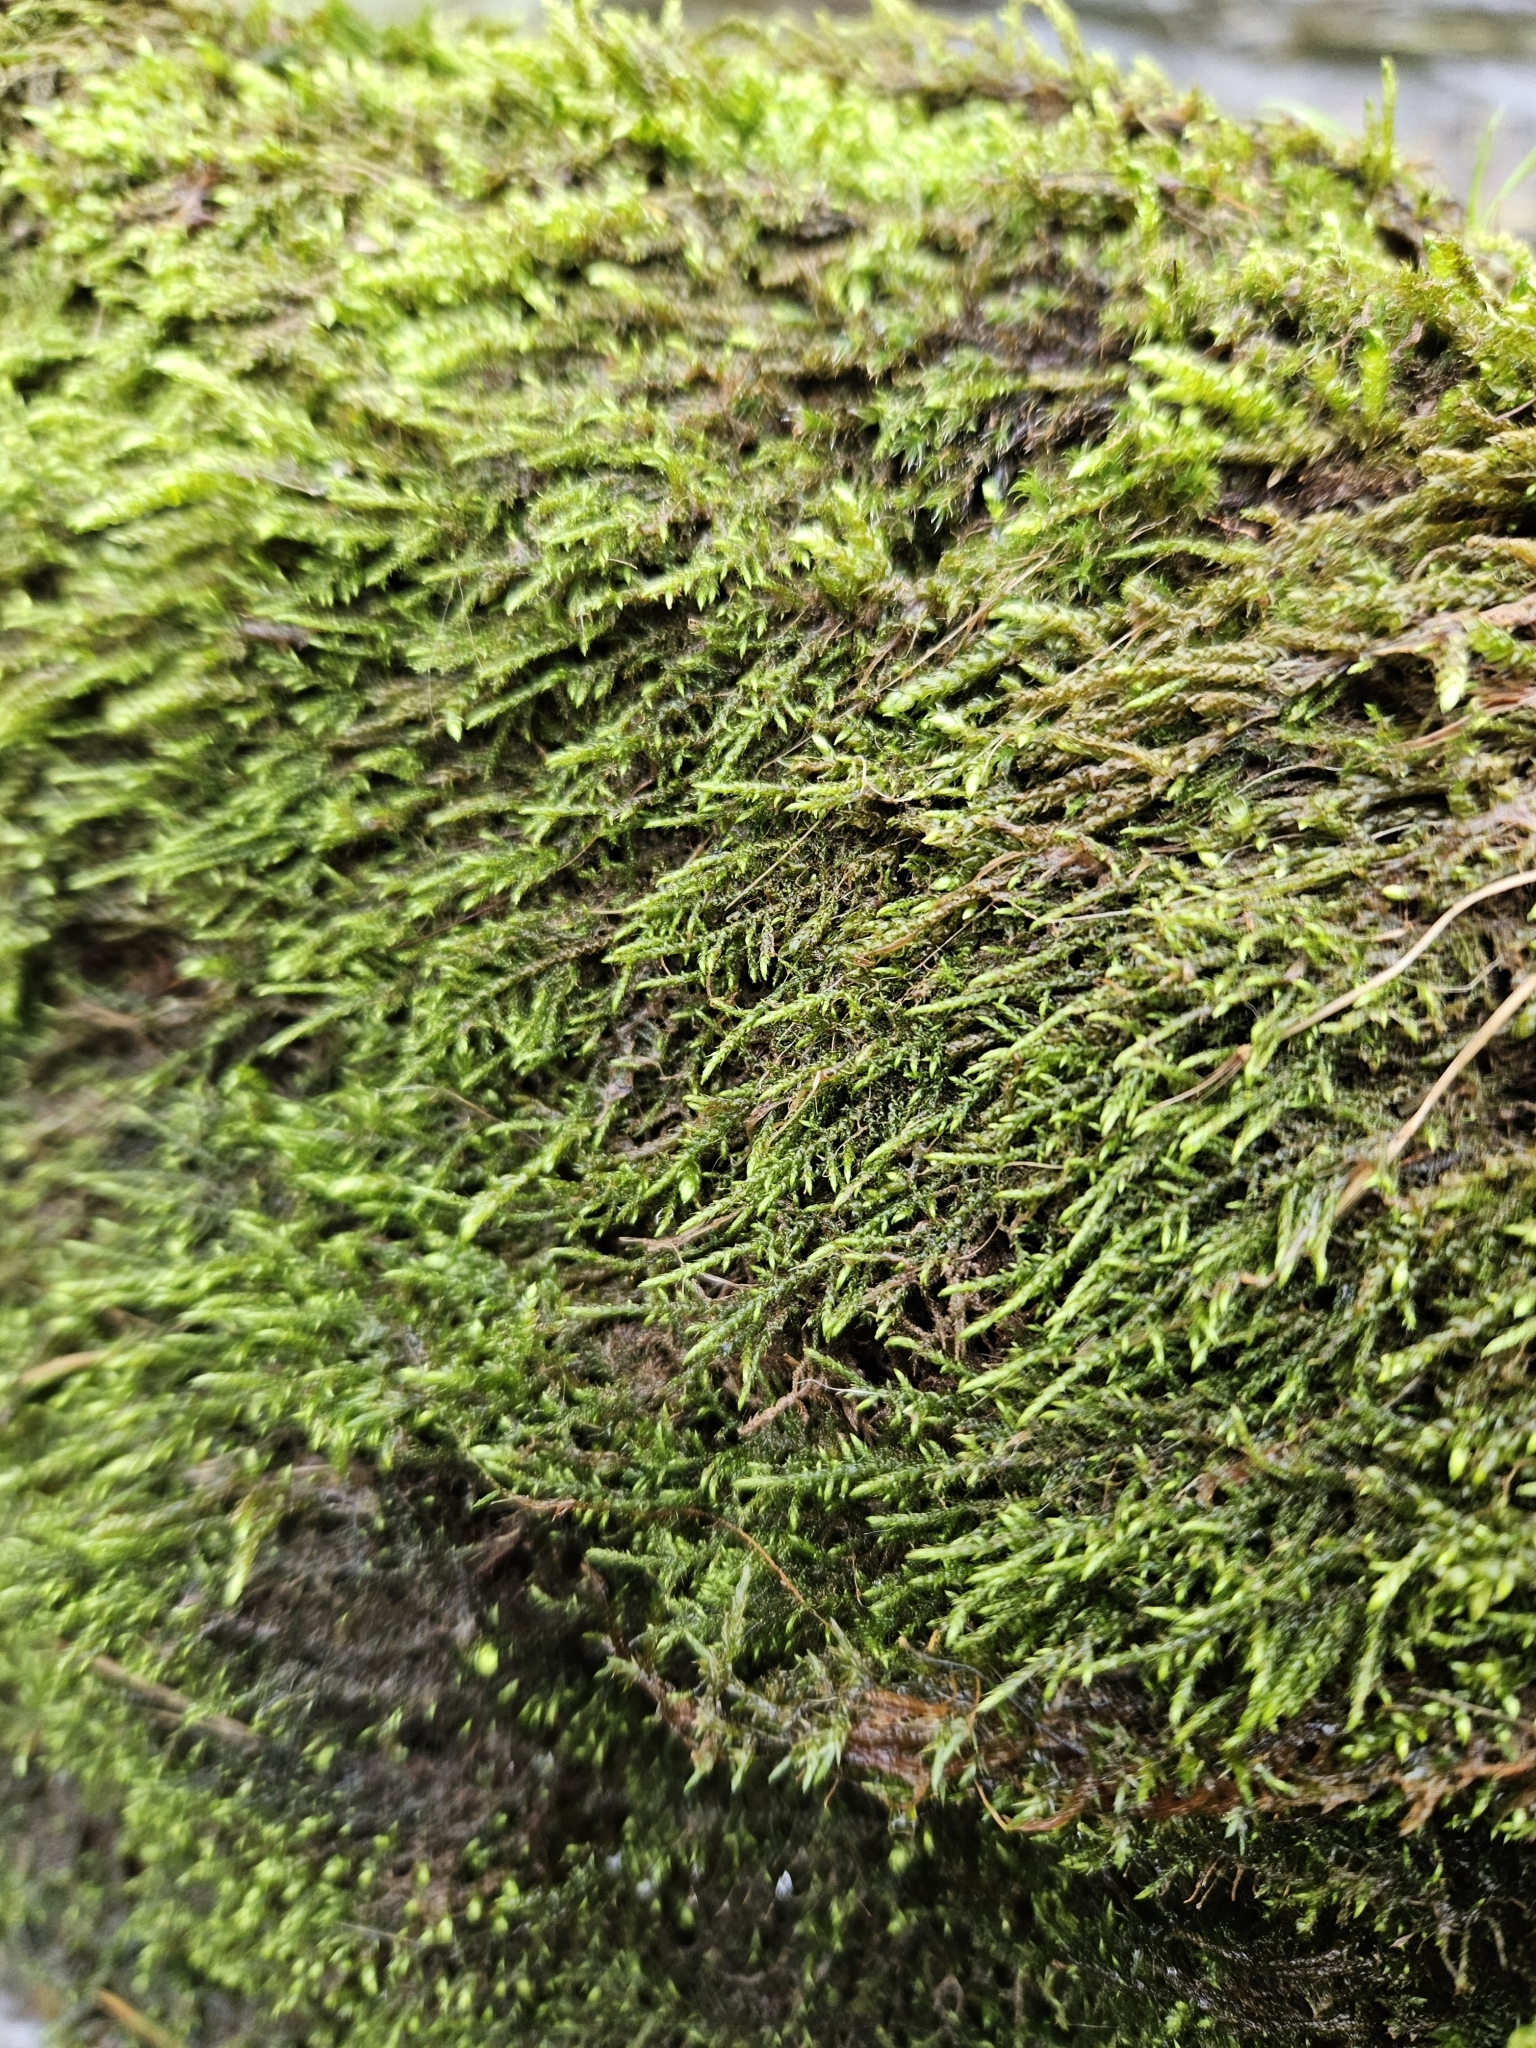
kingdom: Plantae
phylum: Bryophyta
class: Bryopsida
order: Hypnales
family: Amblystegiaceae
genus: Cratoneuron
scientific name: Cratoneuron filicinum
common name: Fern-leaved hook moss
